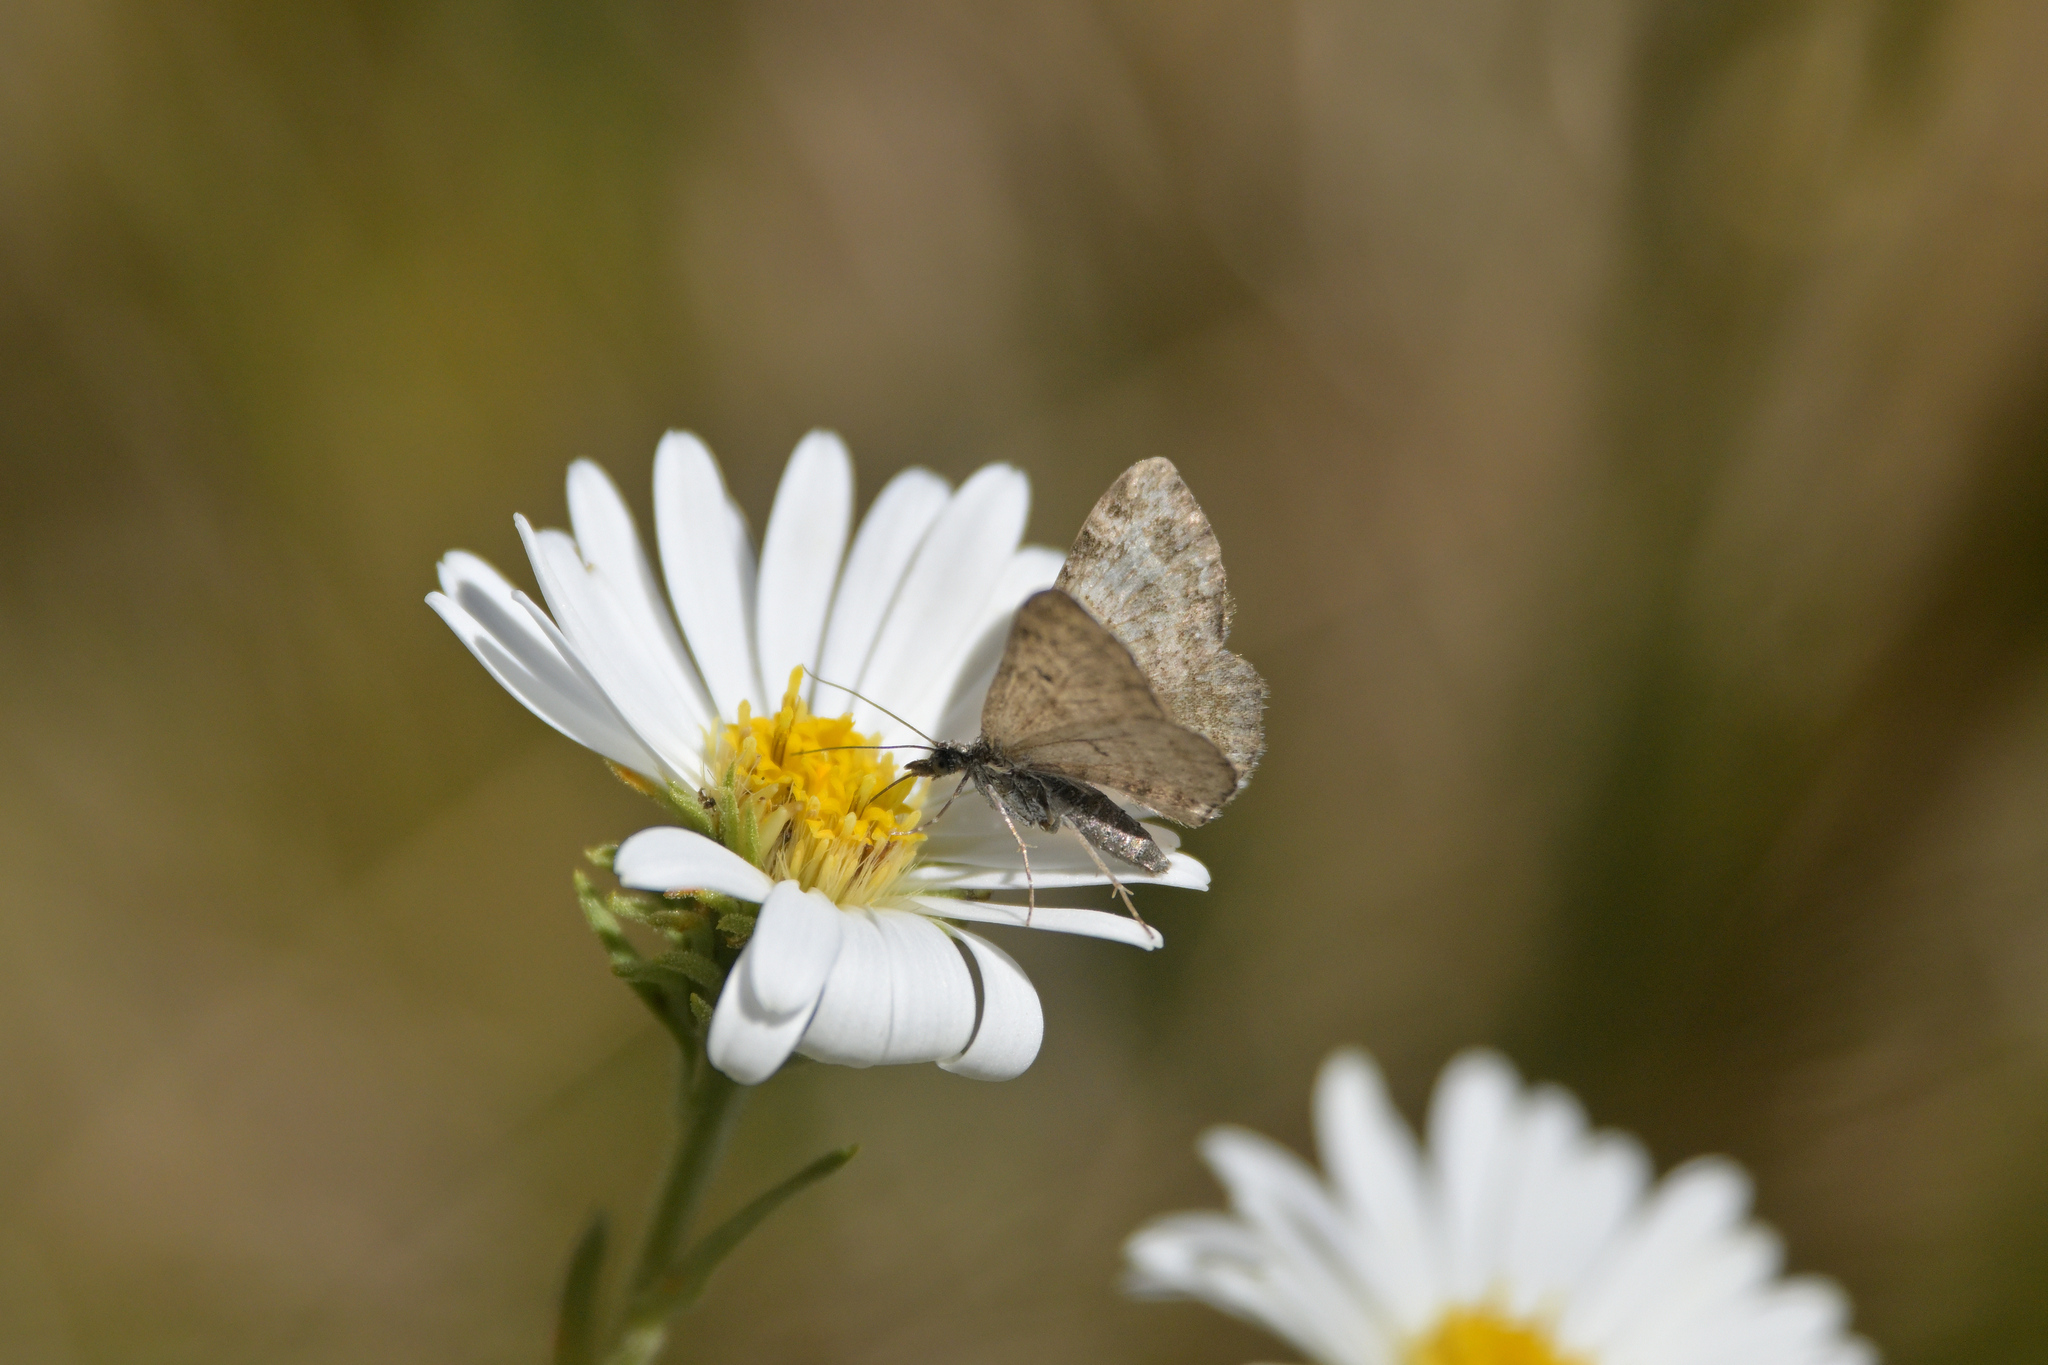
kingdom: Animalia
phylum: Arthropoda
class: Insecta
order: Lepidoptera
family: Geometridae
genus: Chloroclystis
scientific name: Chloroclystis nereis
